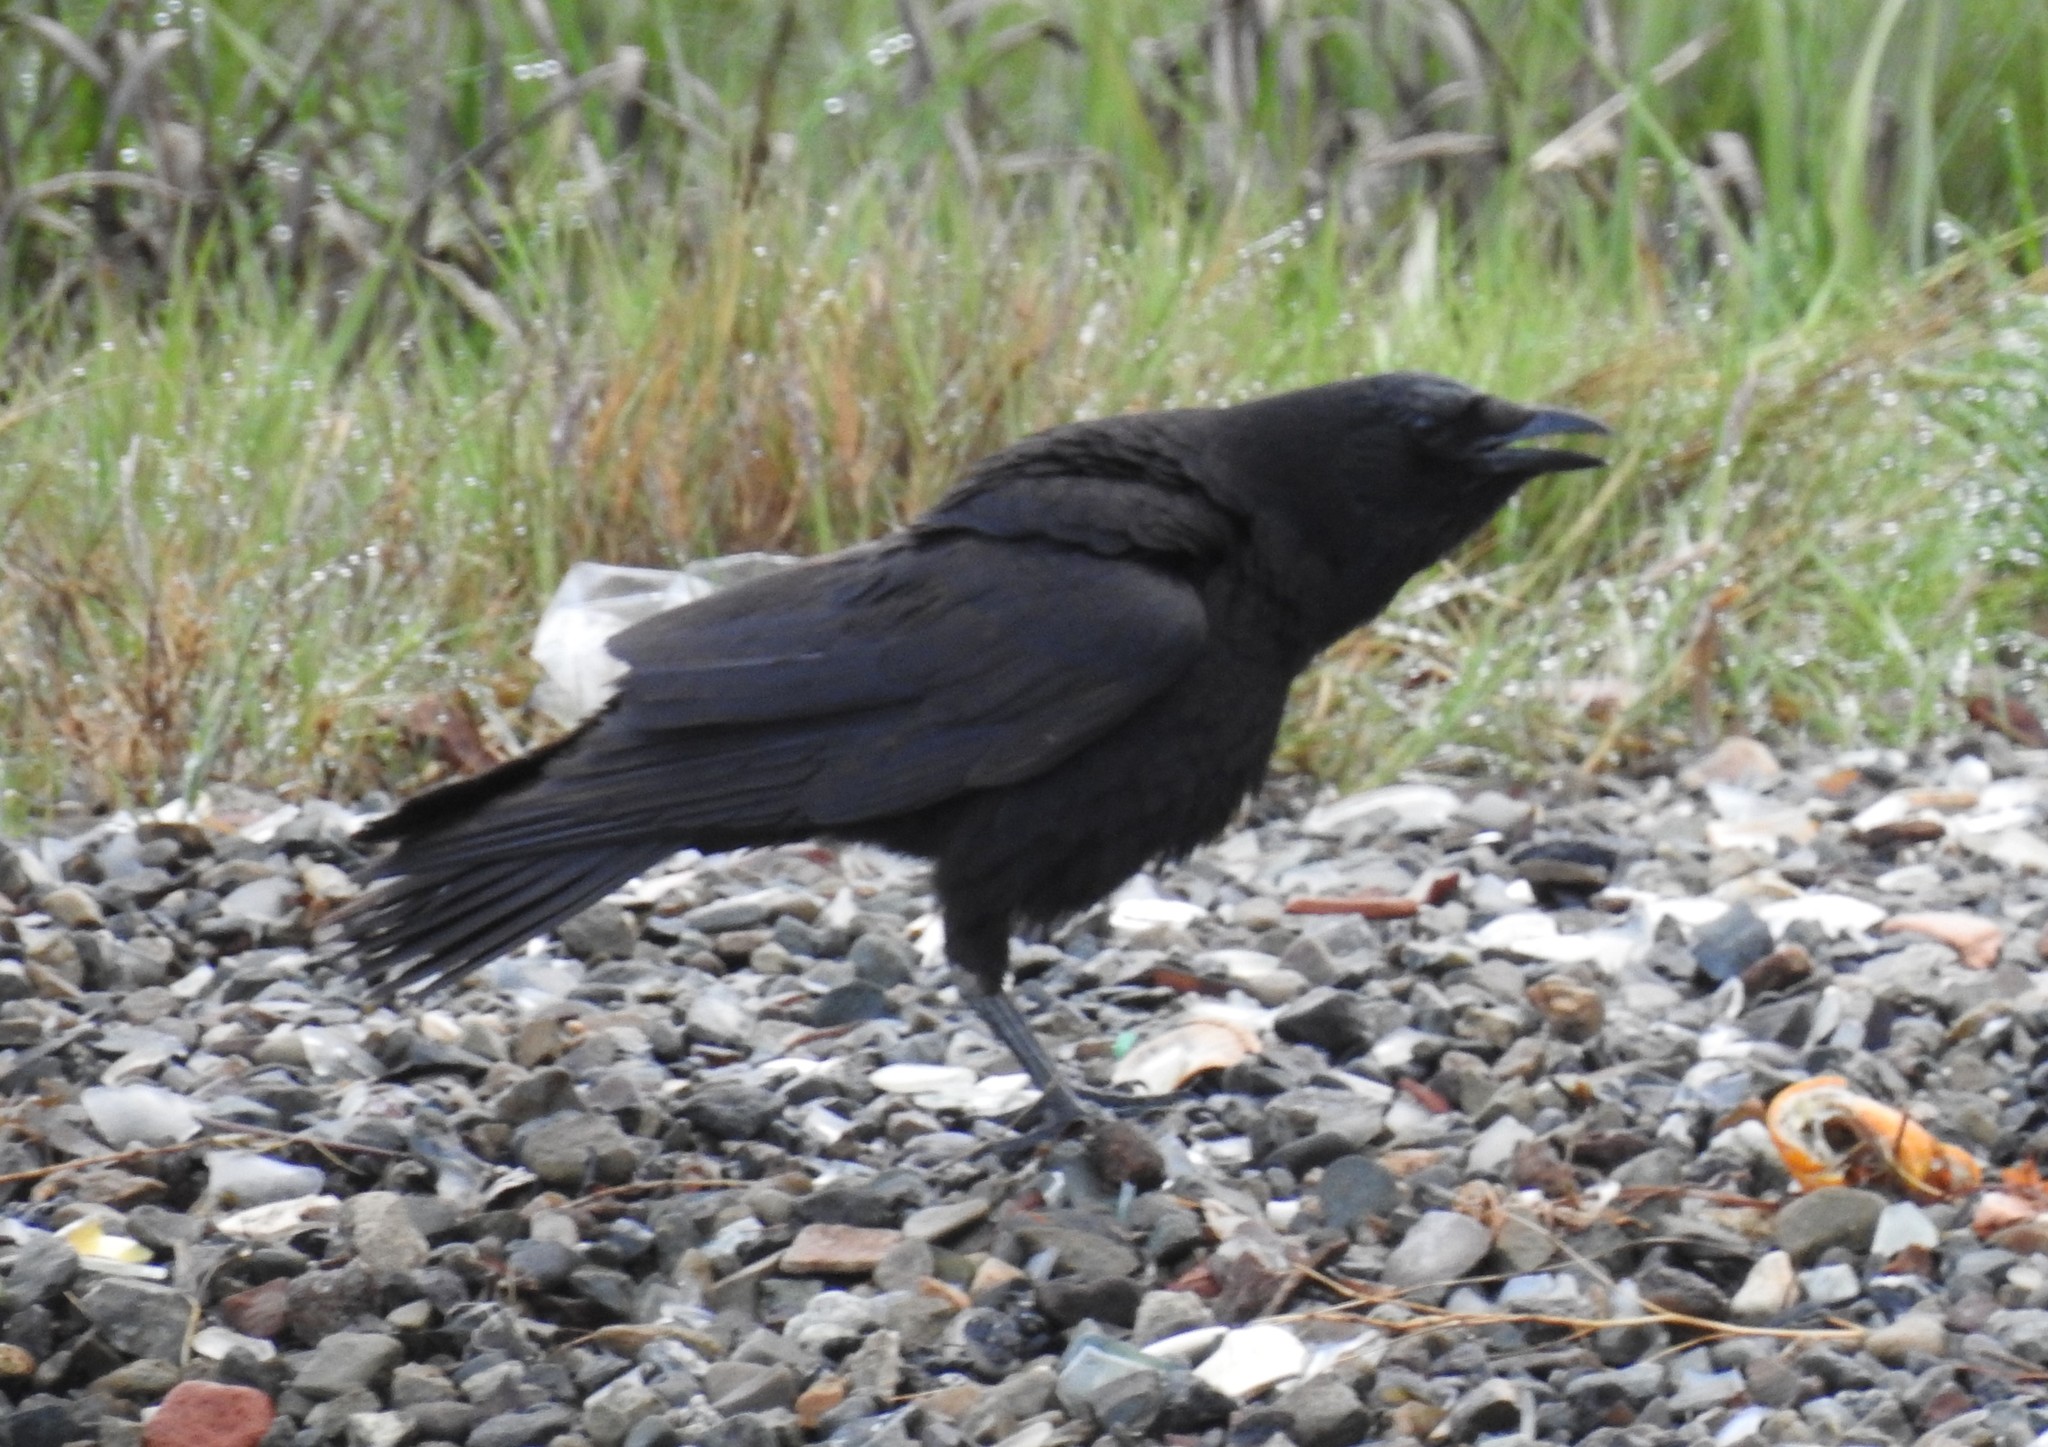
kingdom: Animalia
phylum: Chordata
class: Aves
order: Passeriformes
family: Corvidae
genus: Corvus
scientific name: Corvus brachyrhynchos
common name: American crow
